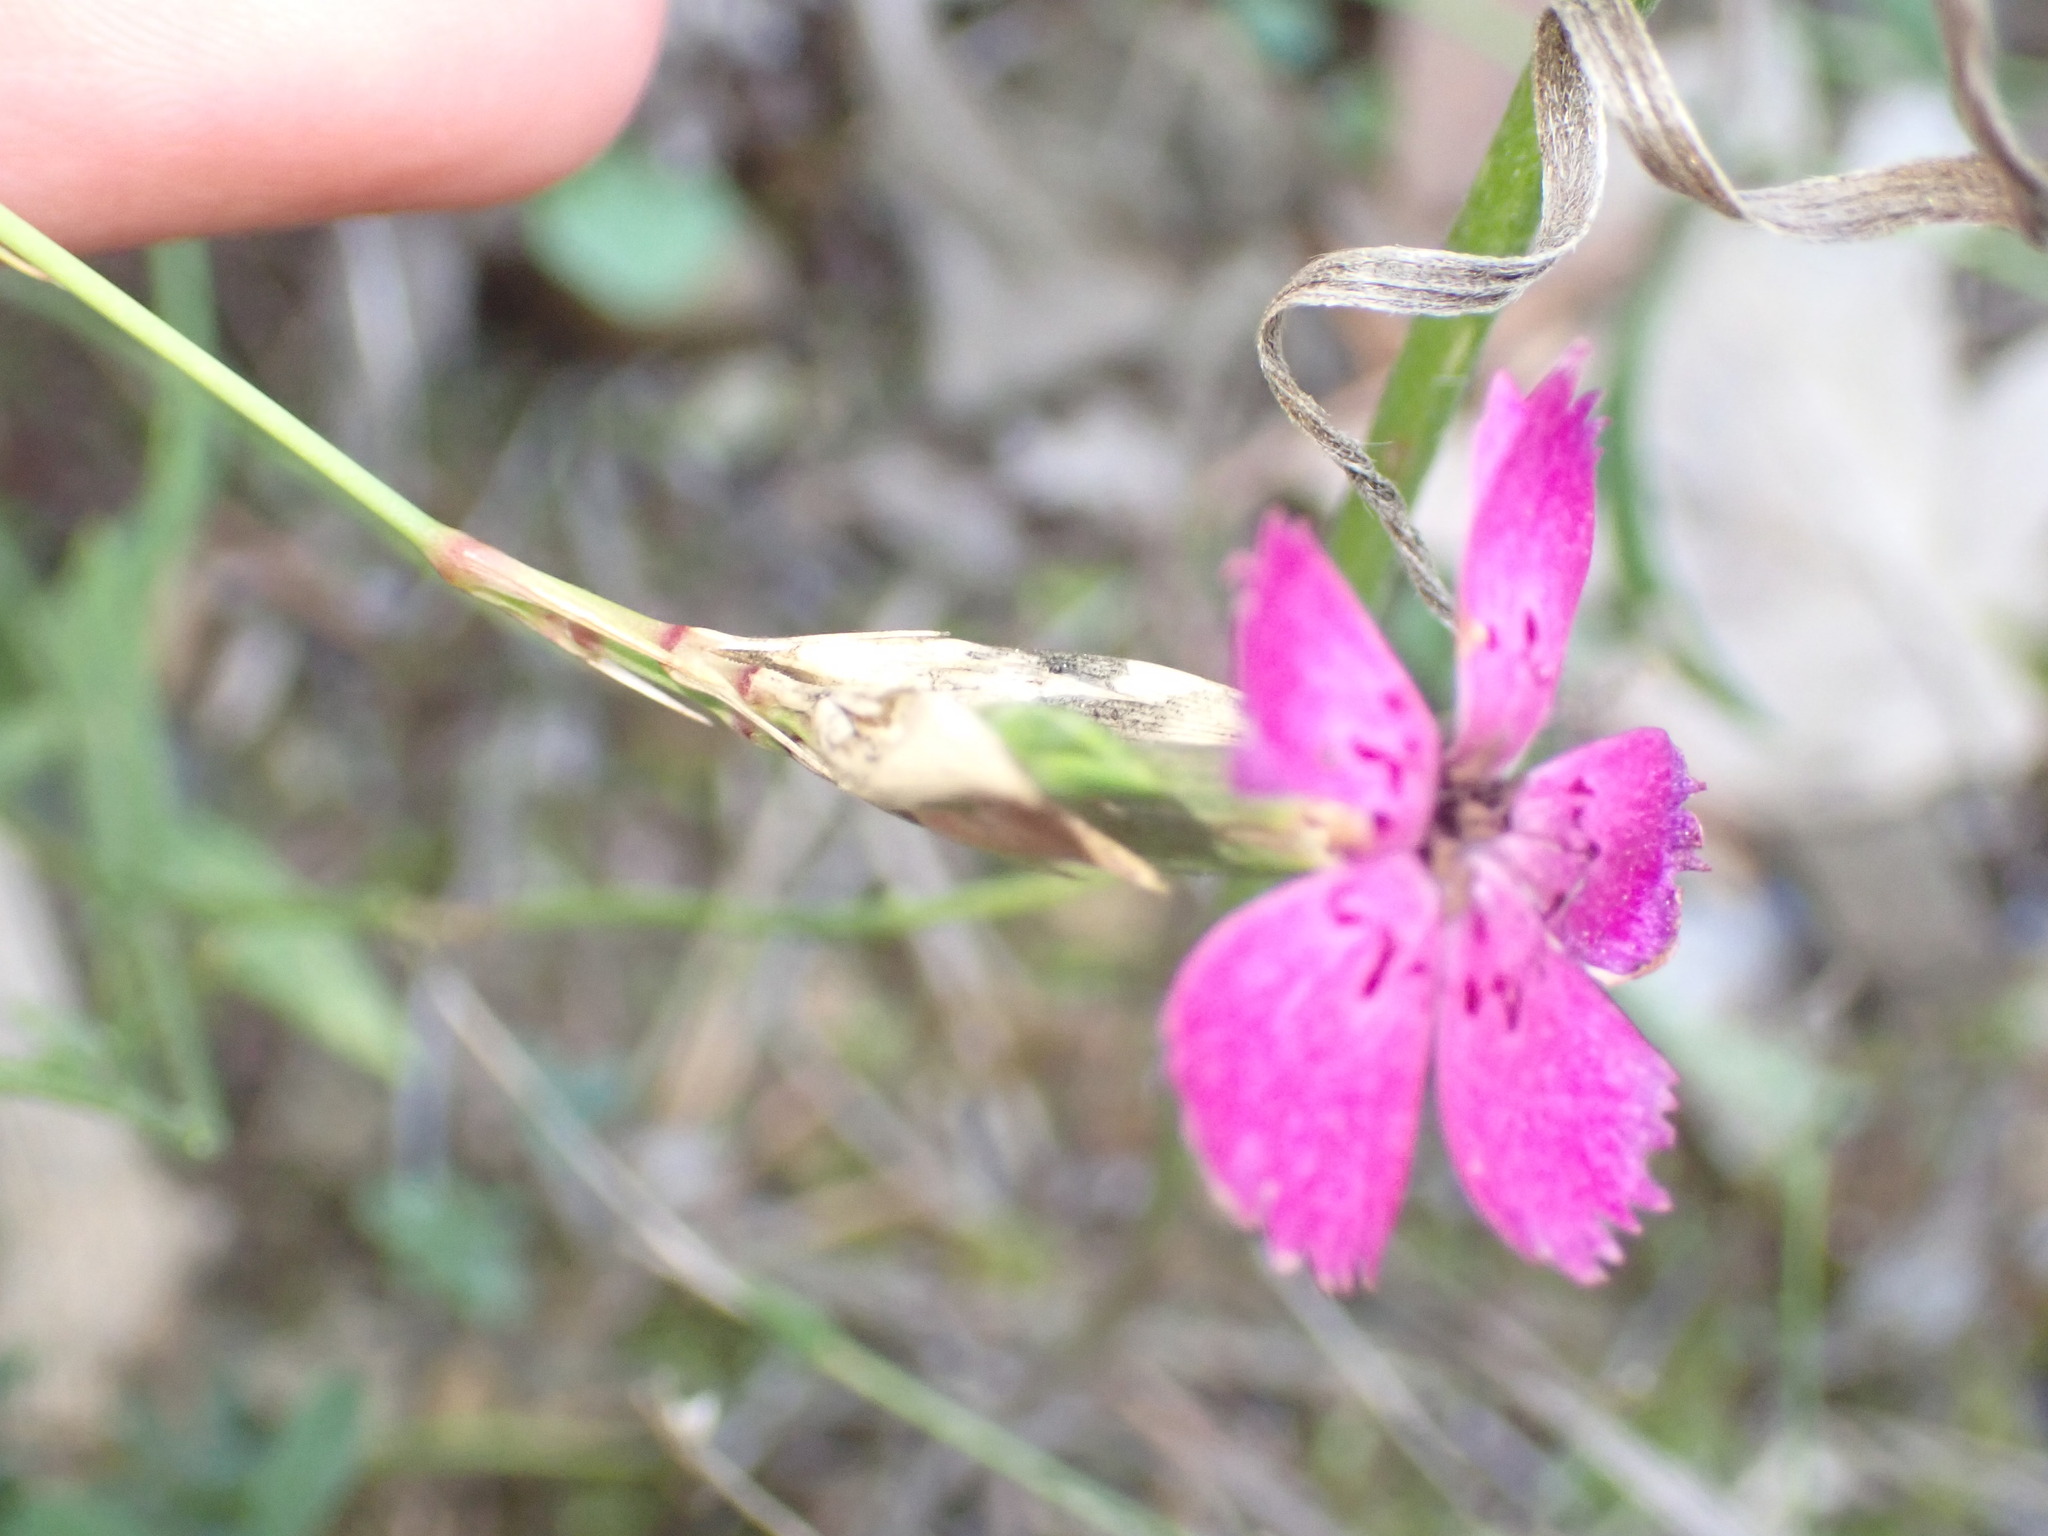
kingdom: Plantae
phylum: Tracheophyta
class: Magnoliopsida
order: Caryophyllales
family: Caryophyllaceae
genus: Dianthus
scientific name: Dianthus seguieri
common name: Ragged pink
